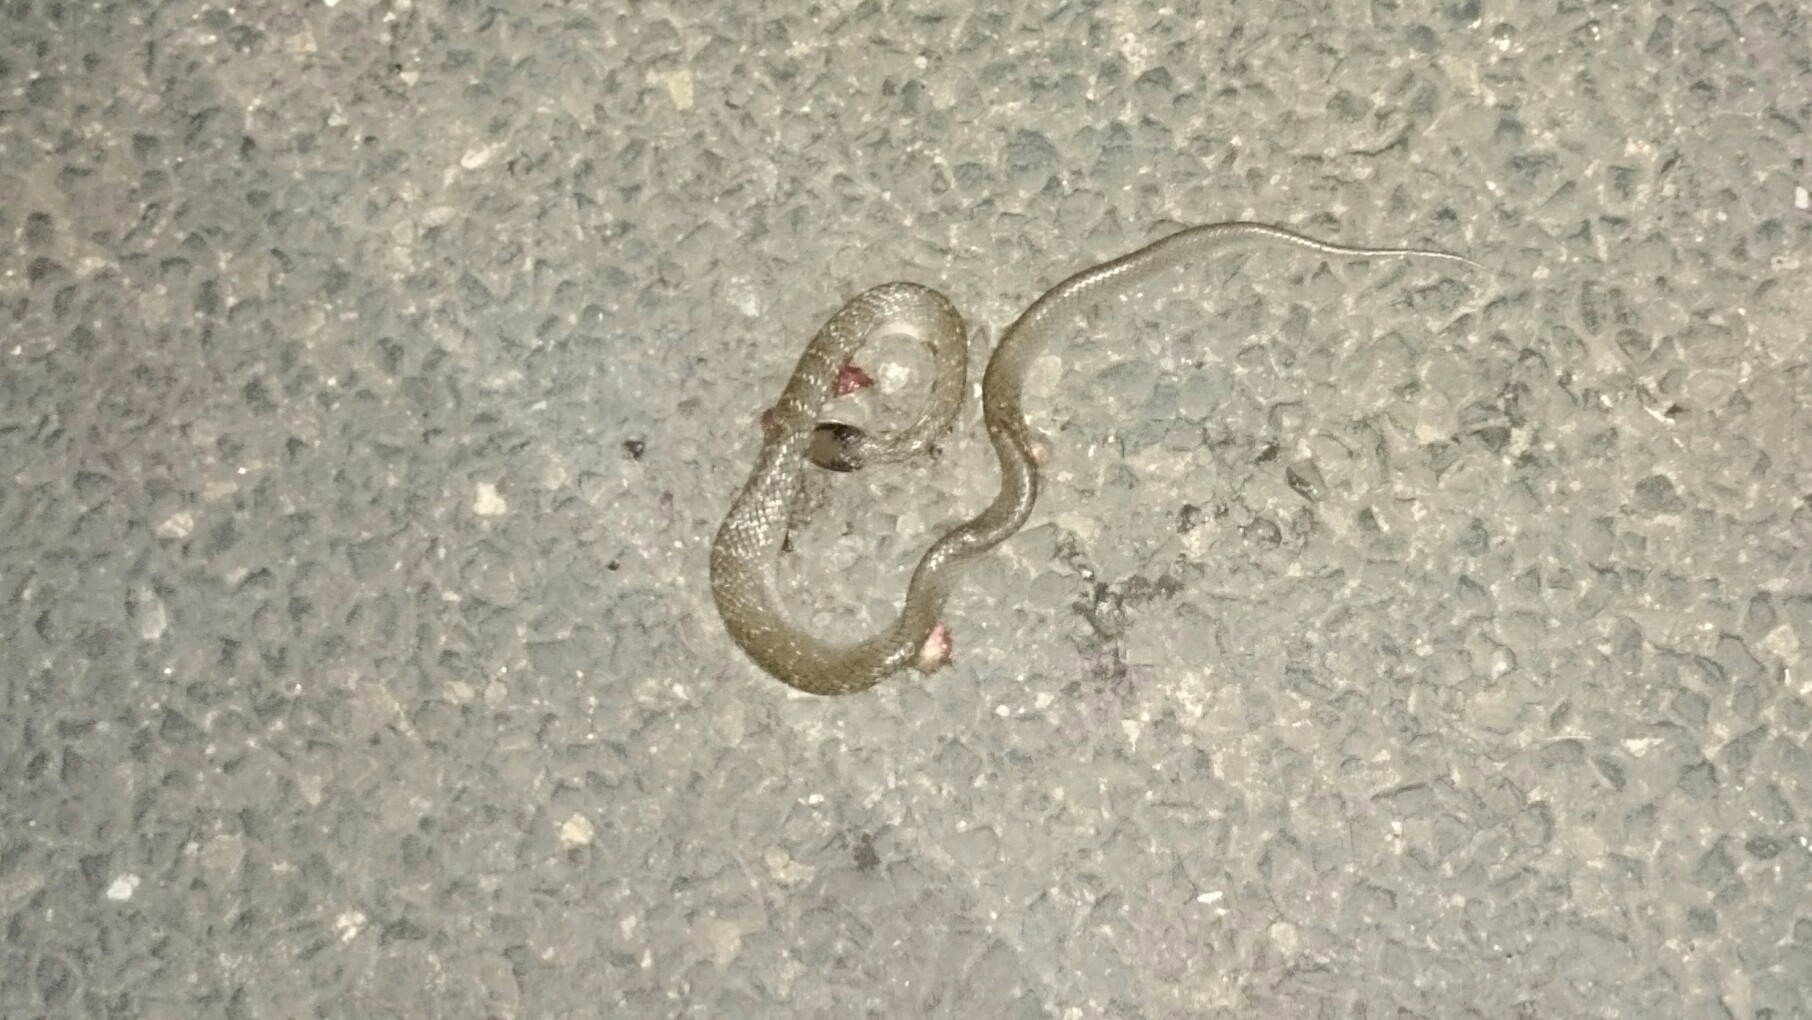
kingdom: Animalia
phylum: Chordata
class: Squamata
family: Colubridae
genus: Crotaphopeltis
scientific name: Crotaphopeltis hotamboeia
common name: Red-lipped snake
